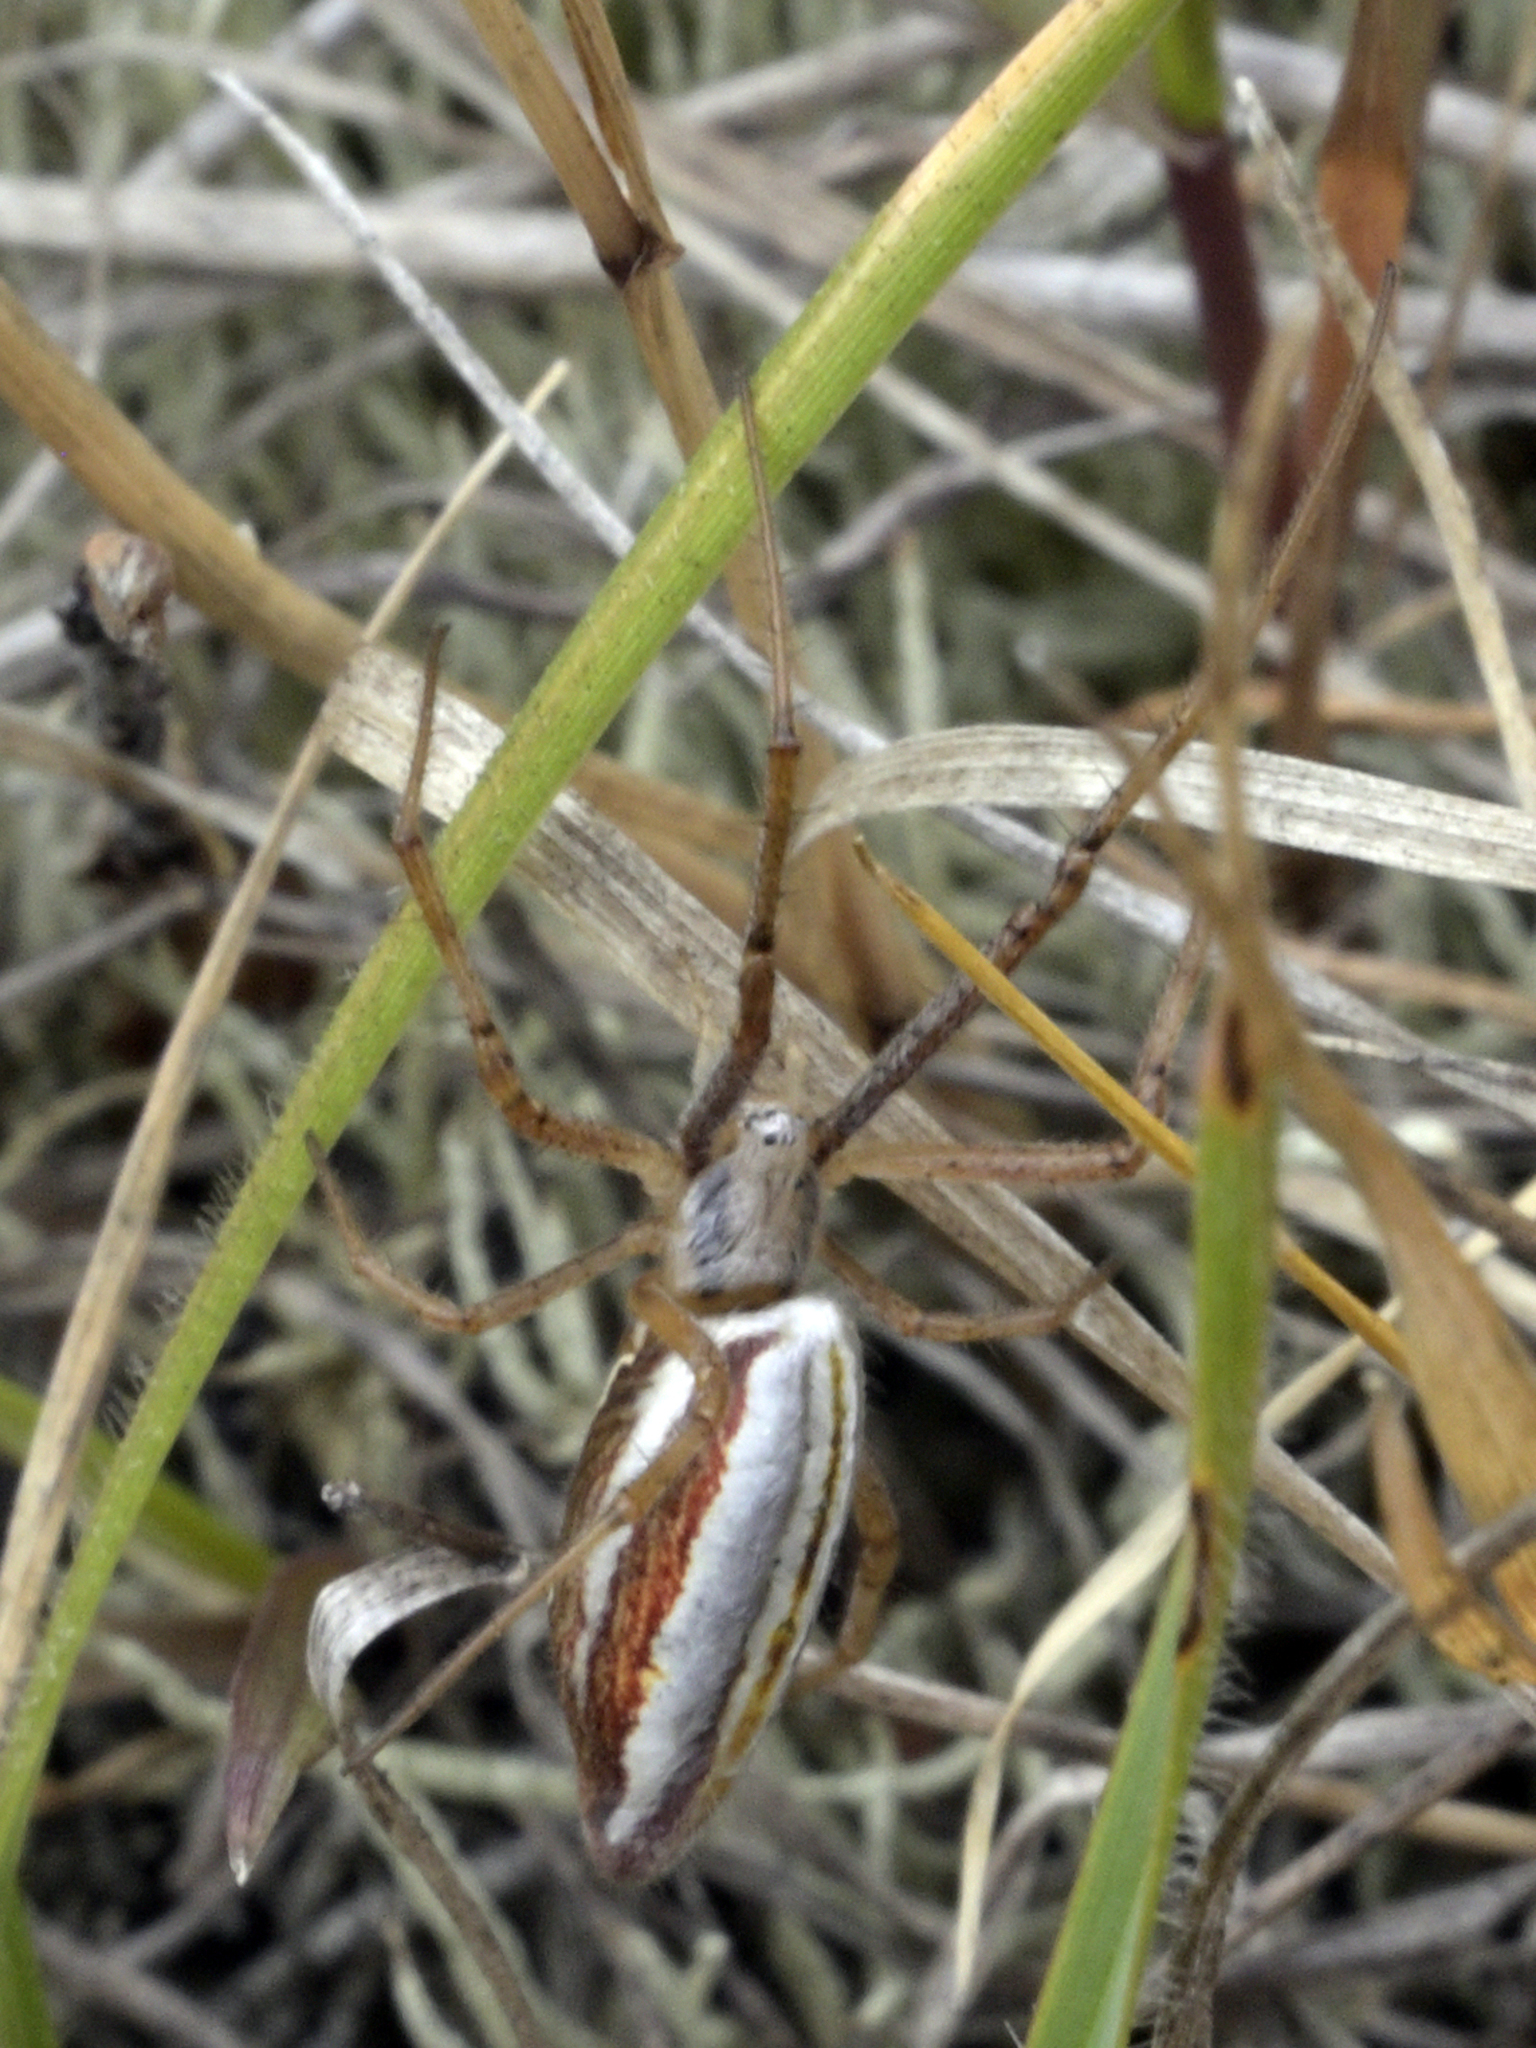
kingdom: Animalia
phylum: Arthropoda
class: Arachnida
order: Araneae
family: Araneidae
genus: Argiope
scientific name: Argiope protensa
